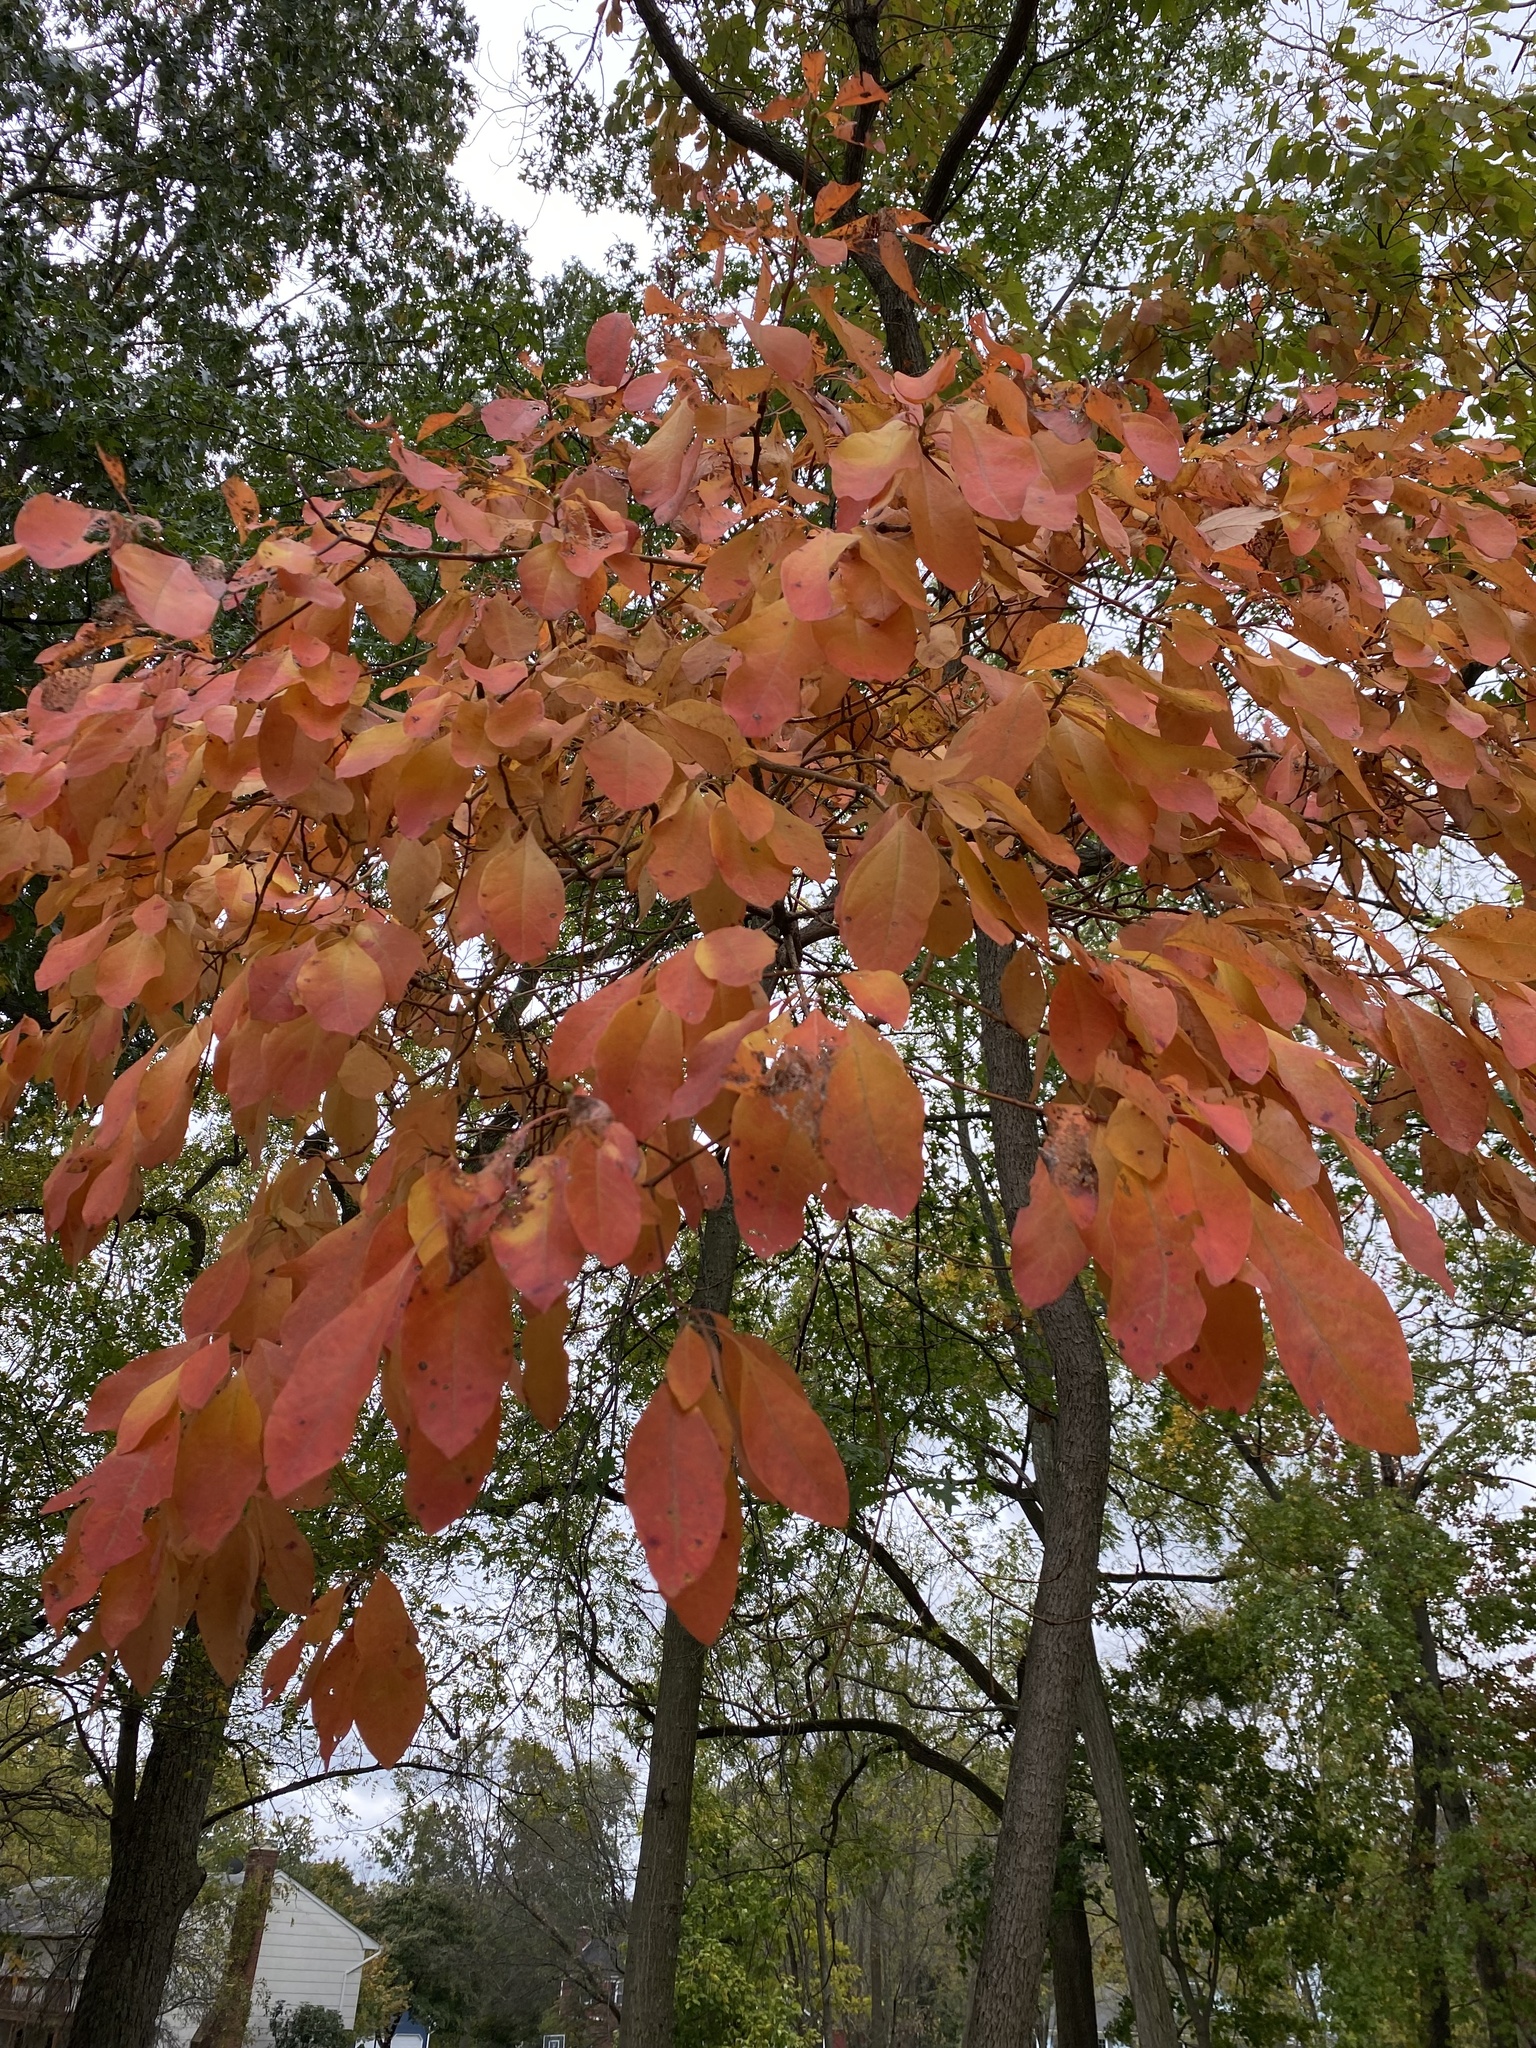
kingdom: Plantae
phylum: Tracheophyta
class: Magnoliopsida
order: Laurales
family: Lauraceae
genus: Sassafras
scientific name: Sassafras albidum
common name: Sassafras
